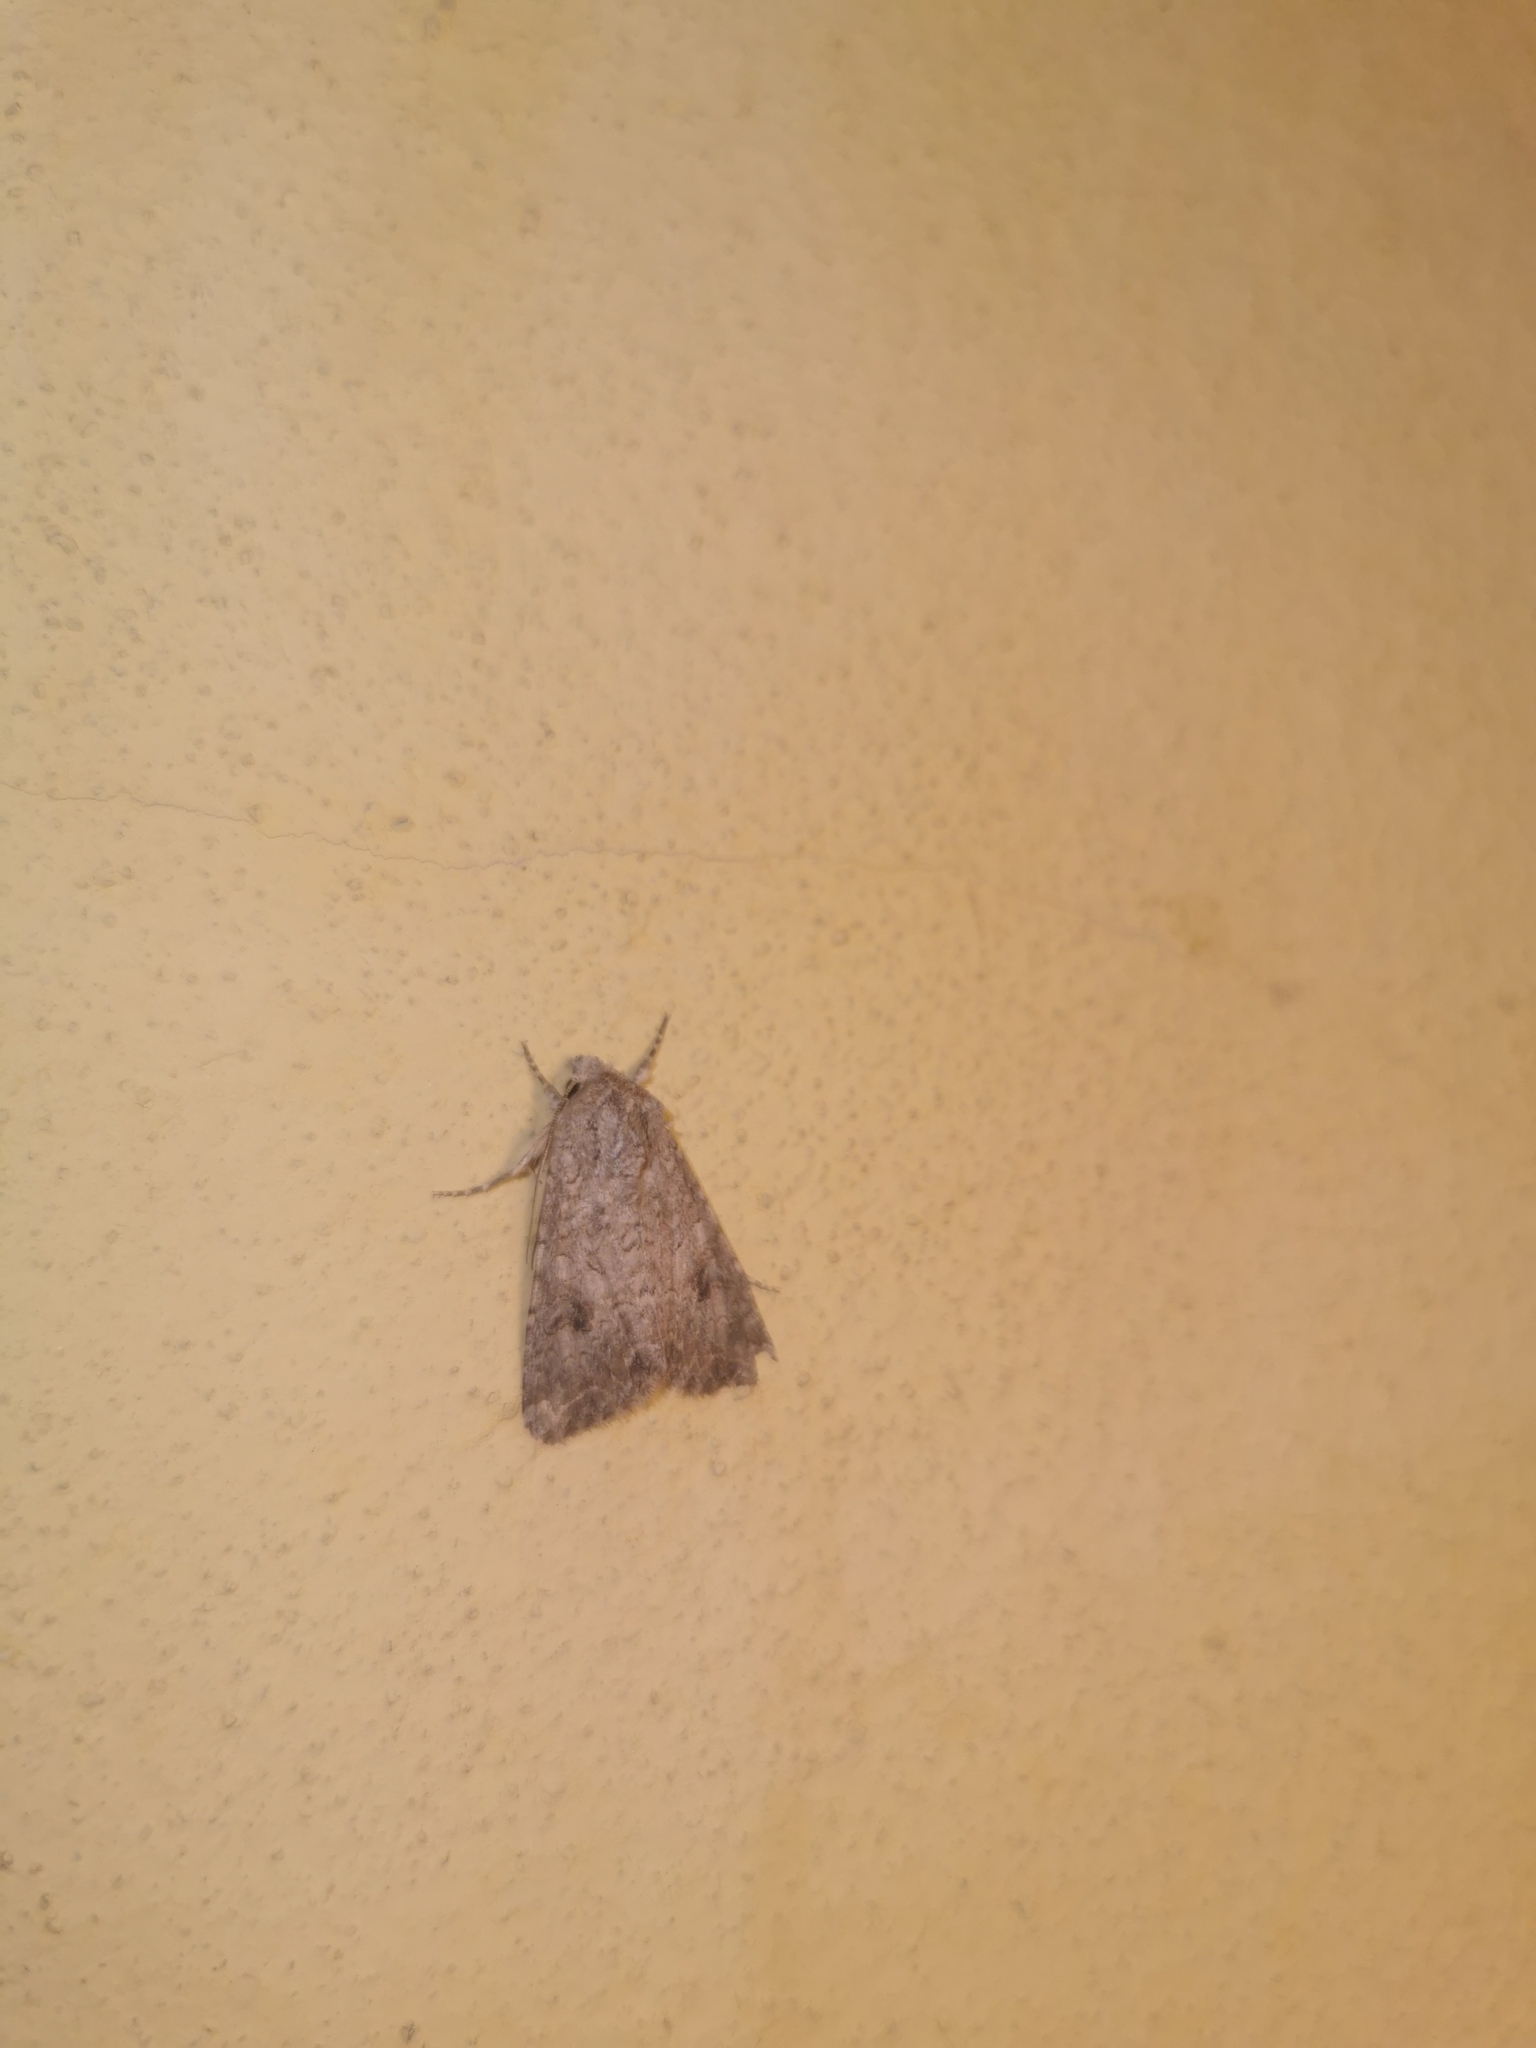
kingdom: Animalia
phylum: Arthropoda
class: Insecta
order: Lepidoptera
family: Noctuidae
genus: Anarta
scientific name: Anarta trifolii
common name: Clover cutworm moth
